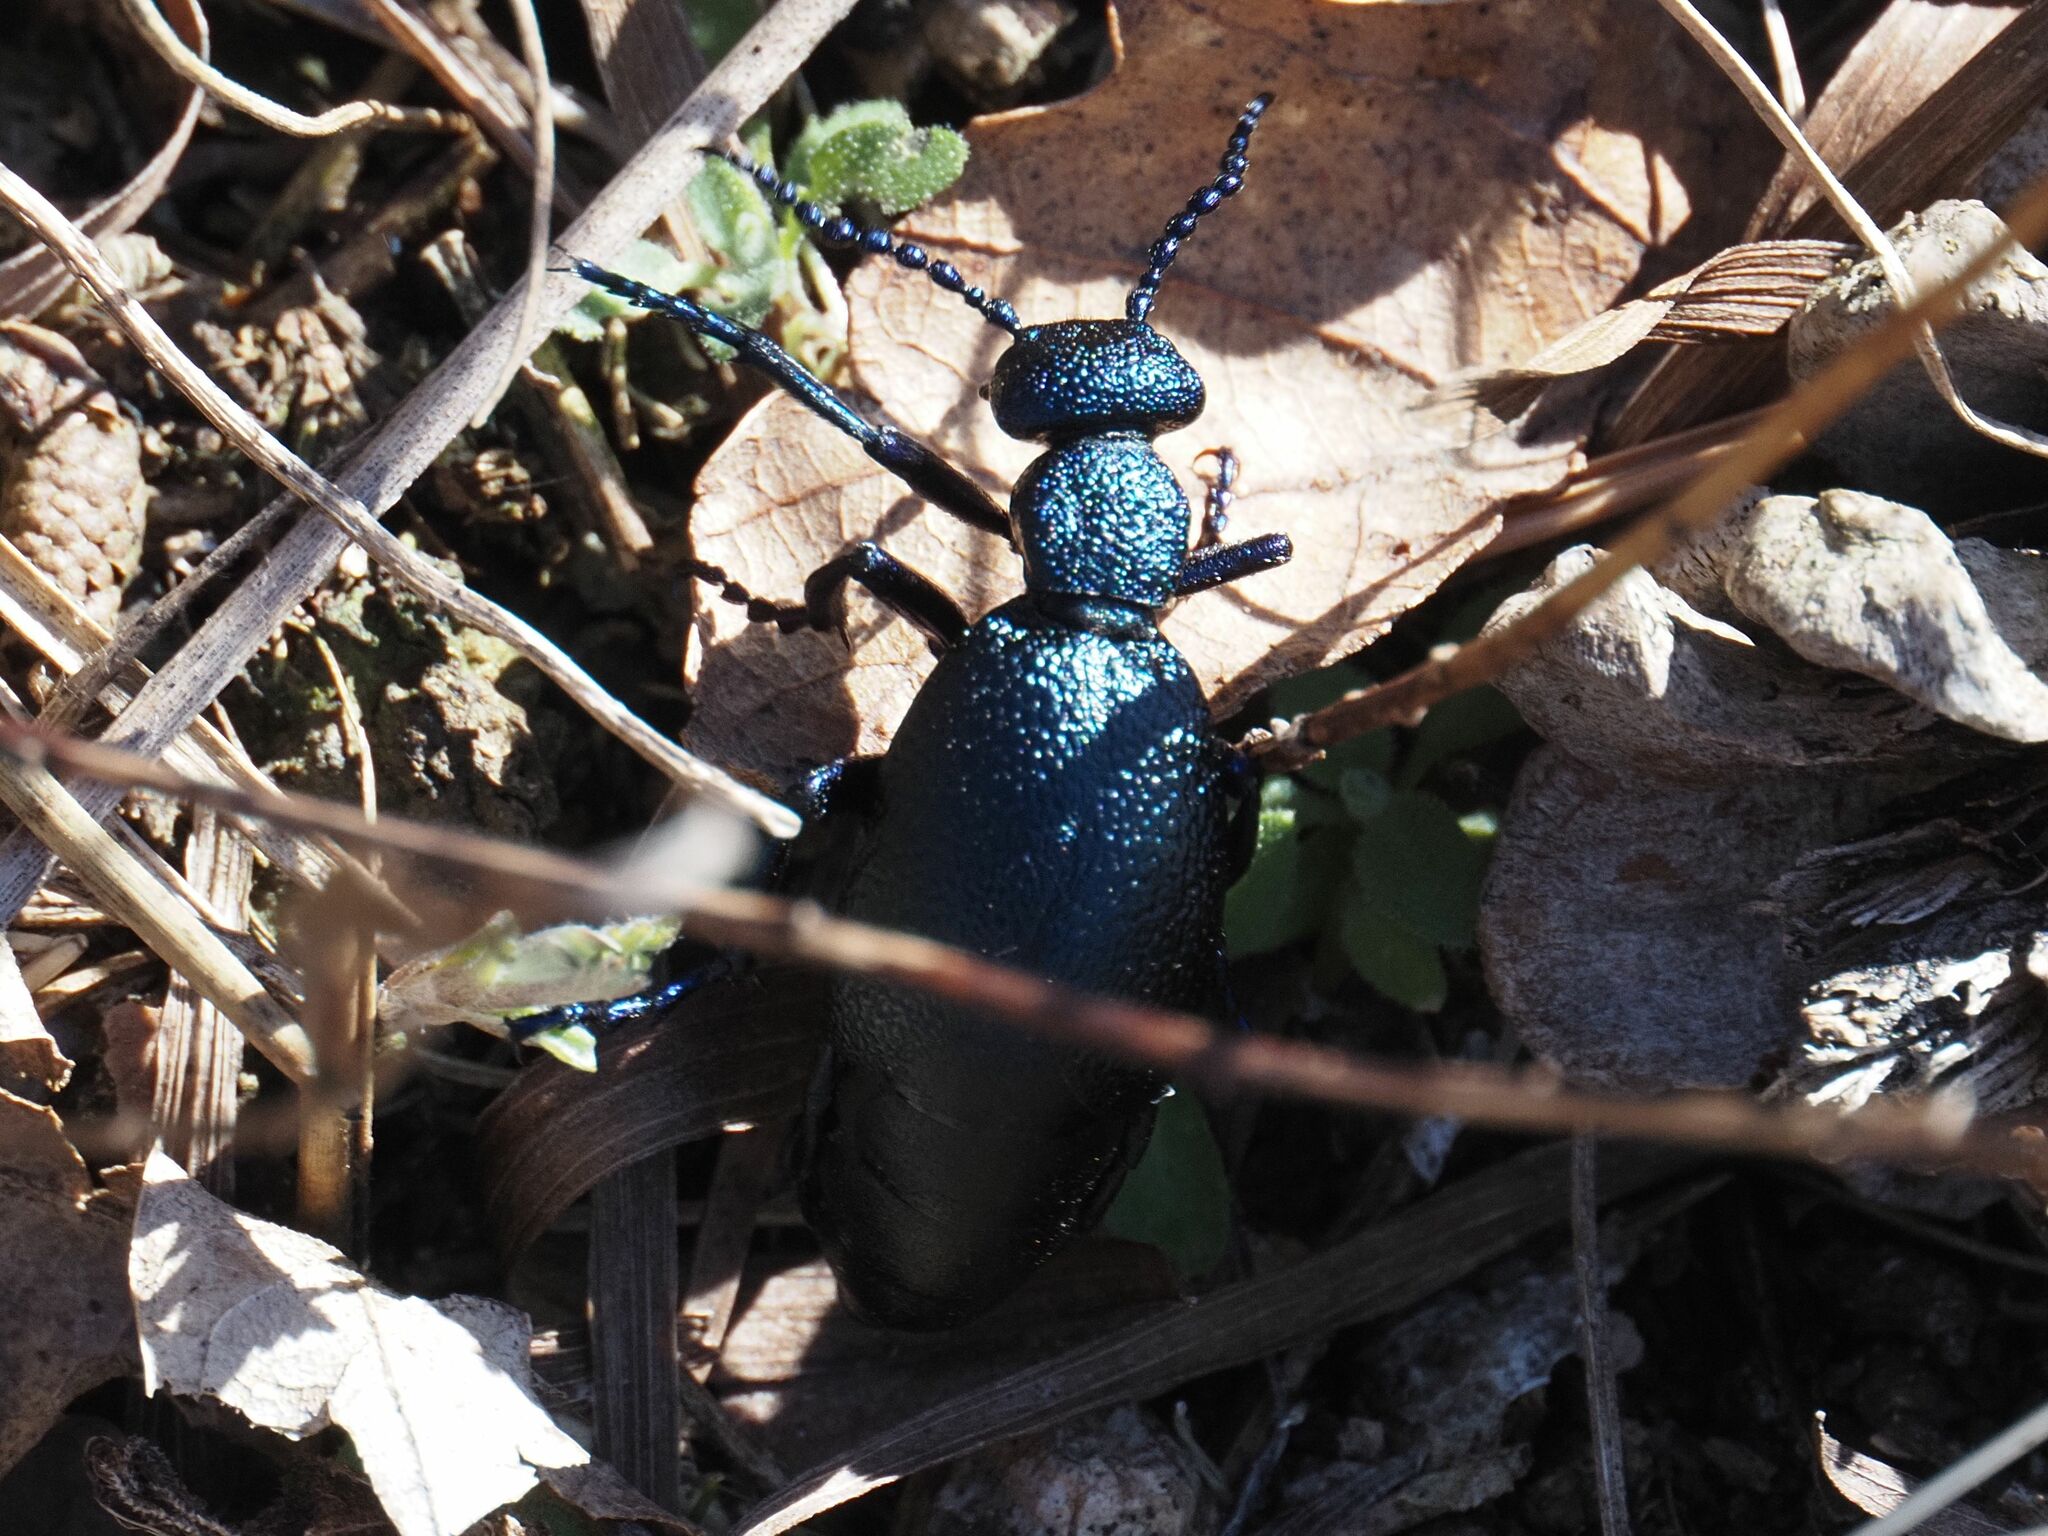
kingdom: Animalia
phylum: Arthropoda
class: Insecta
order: Coleoptera
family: Meloidae
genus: Meloe
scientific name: Meloe proscarabaeus
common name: Black oil-beetle
